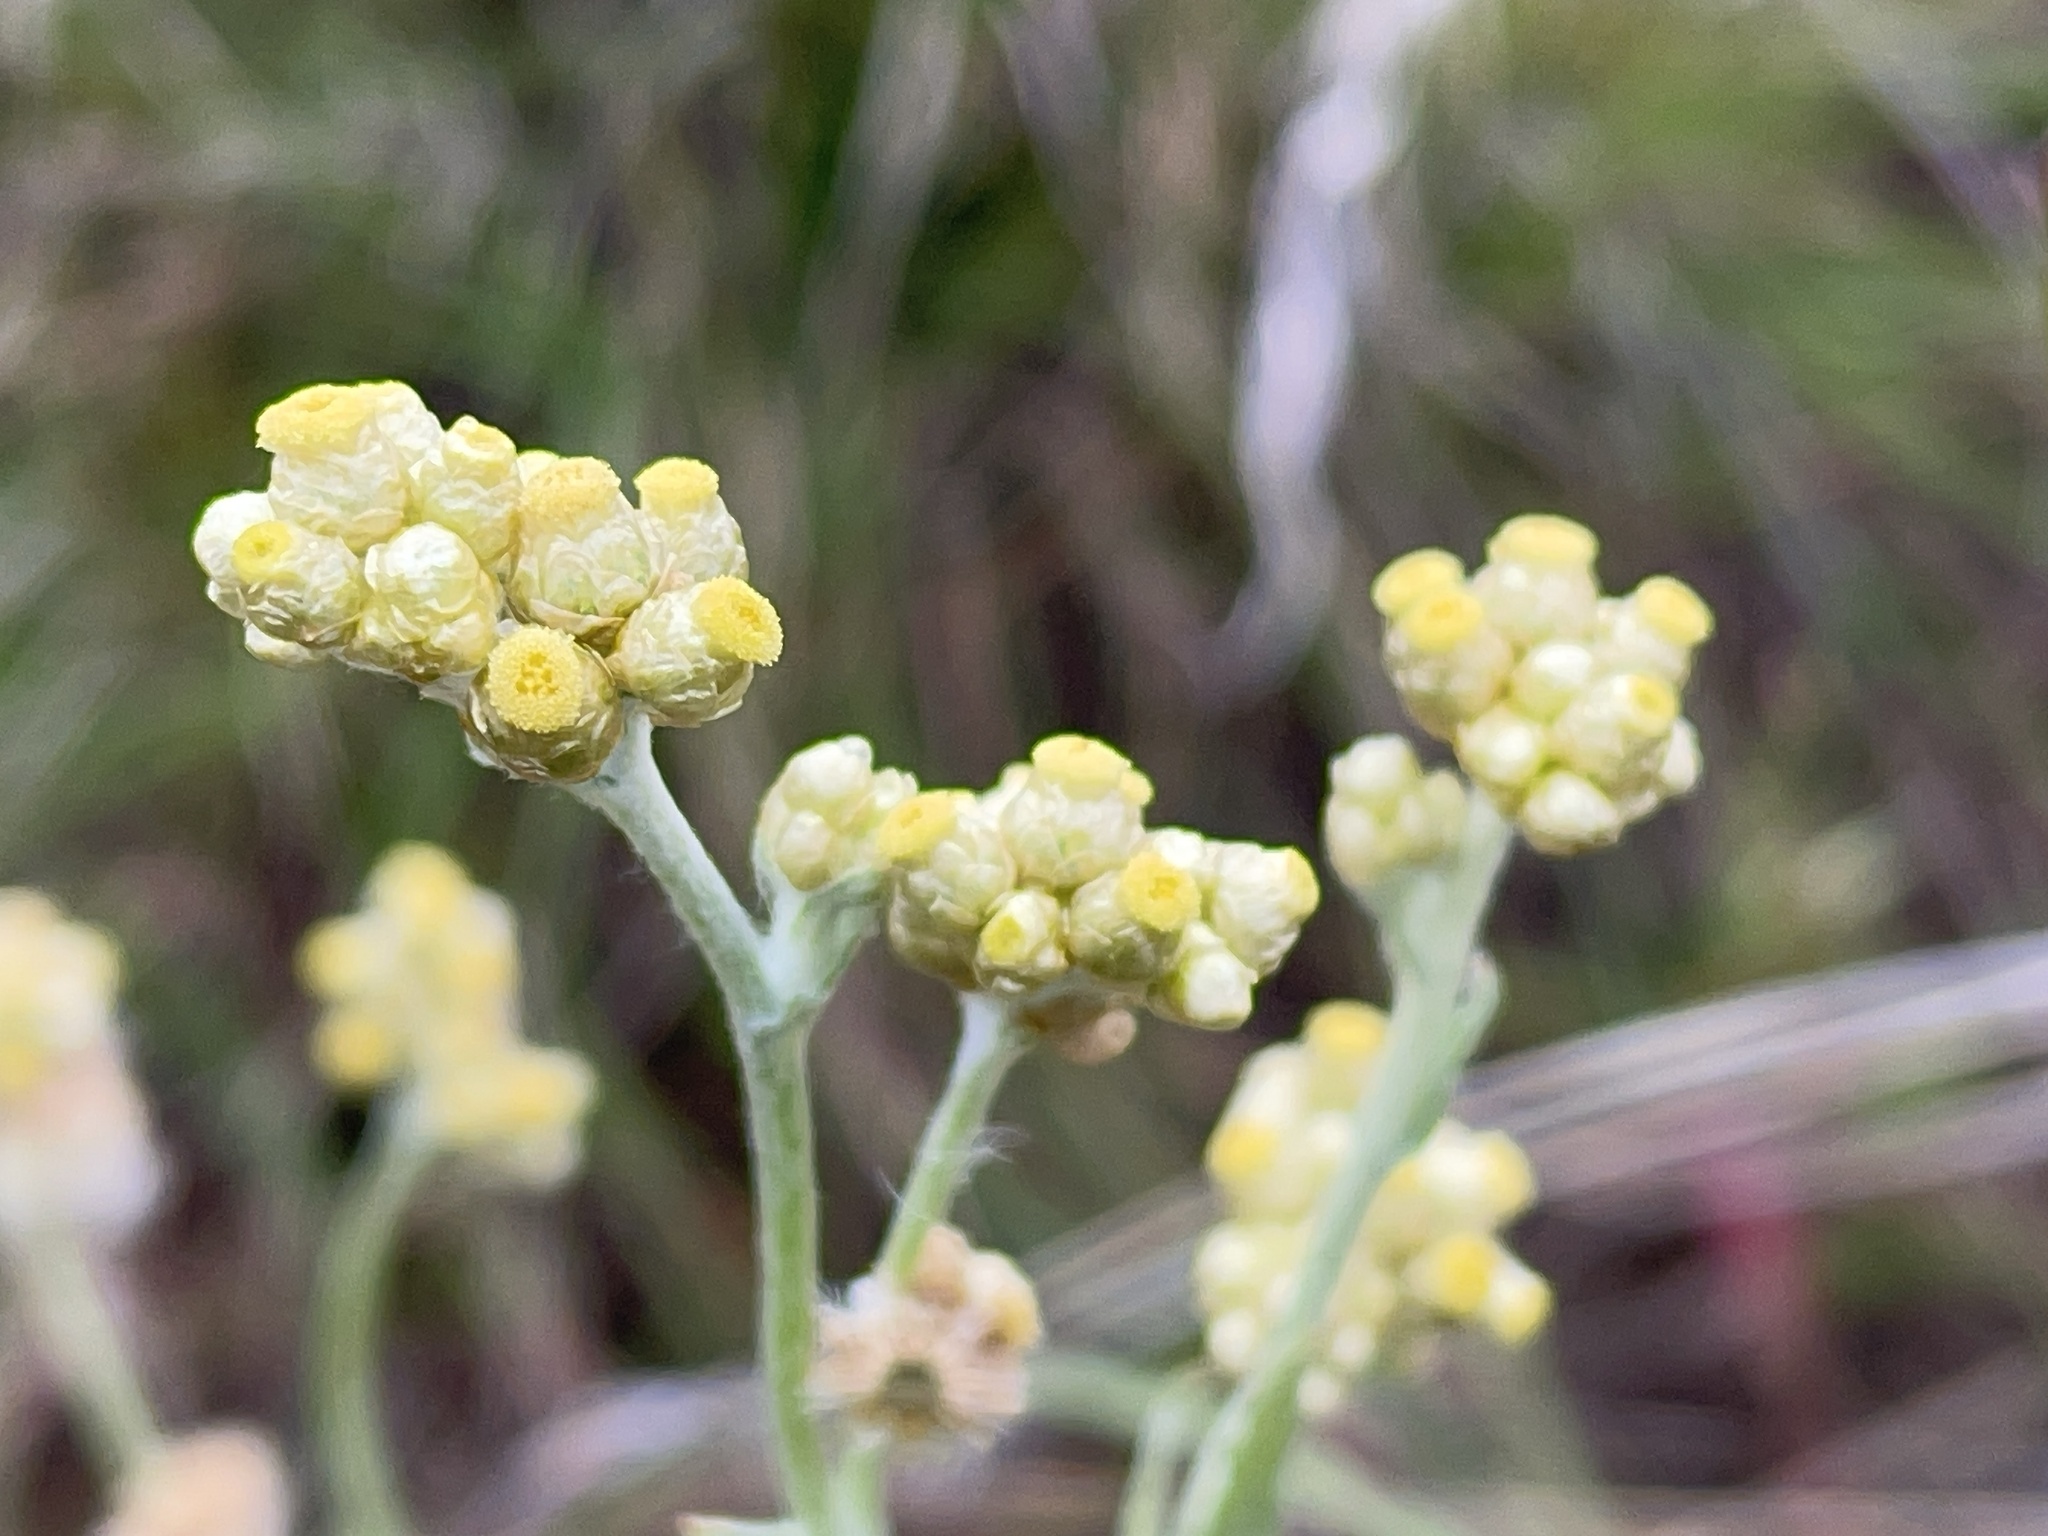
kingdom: Plantae
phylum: Tracheophyta
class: Magnoliopsida
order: Asterales
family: Asteraceae
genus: Helichrysum
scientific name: Helichrysum luteoalbum
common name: Daisy
